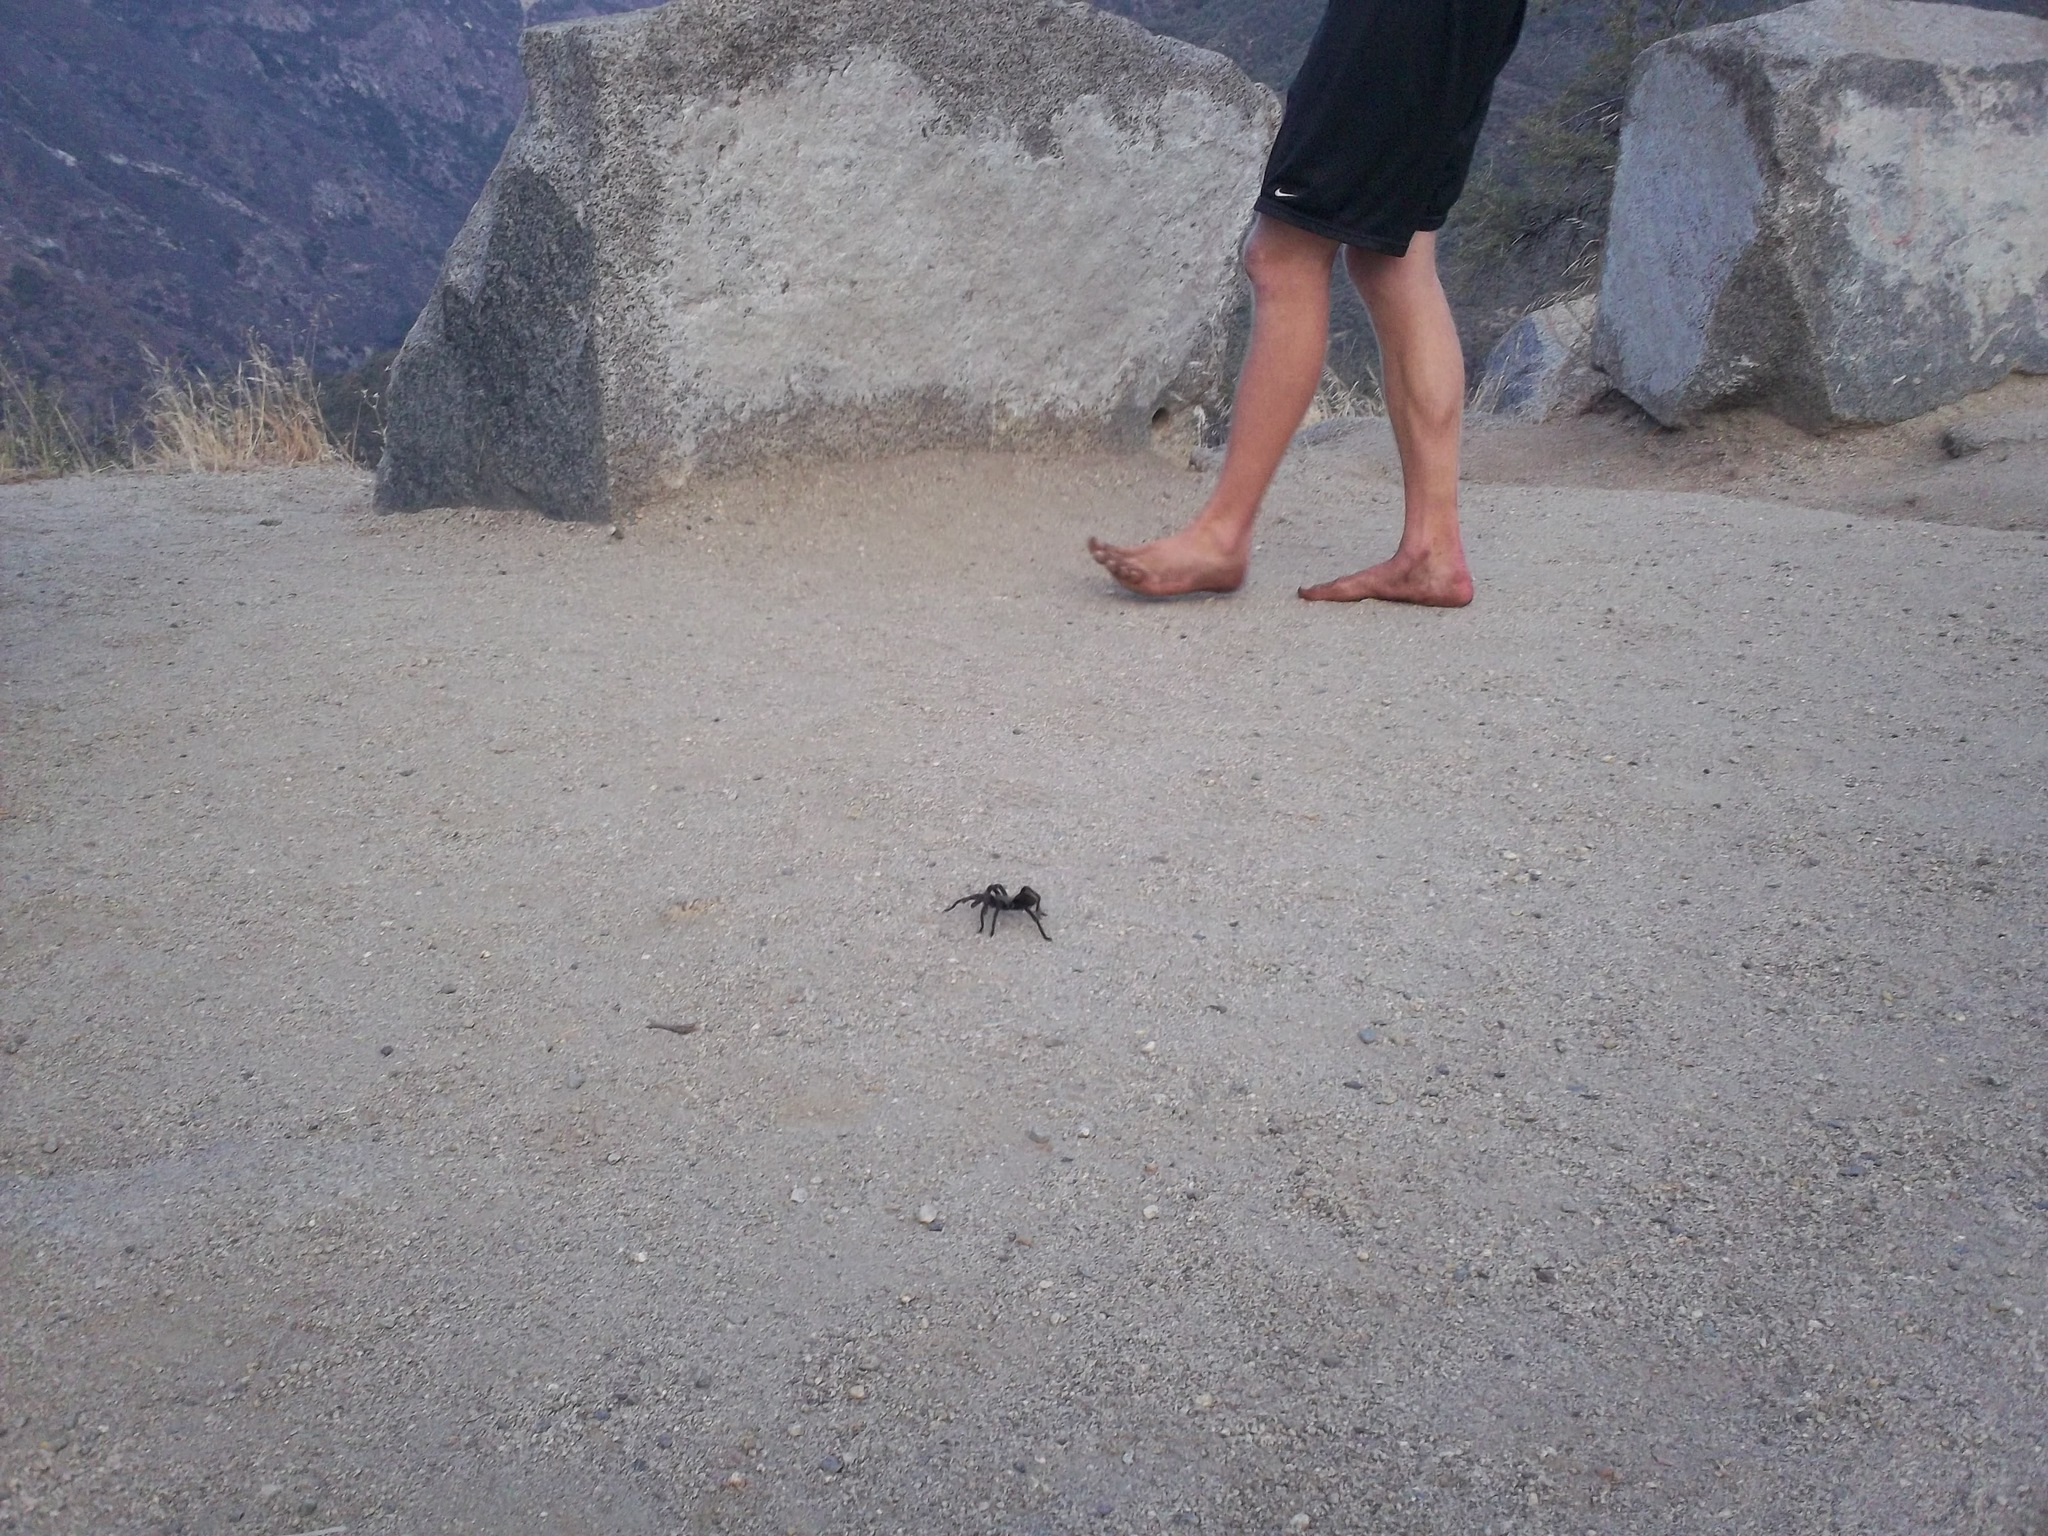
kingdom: Animalia
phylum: Arthropoda
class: Arachnida
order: Araneae
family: Theraphosidae
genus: Aphonopelma
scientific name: Aphonopelma johnnycashi
